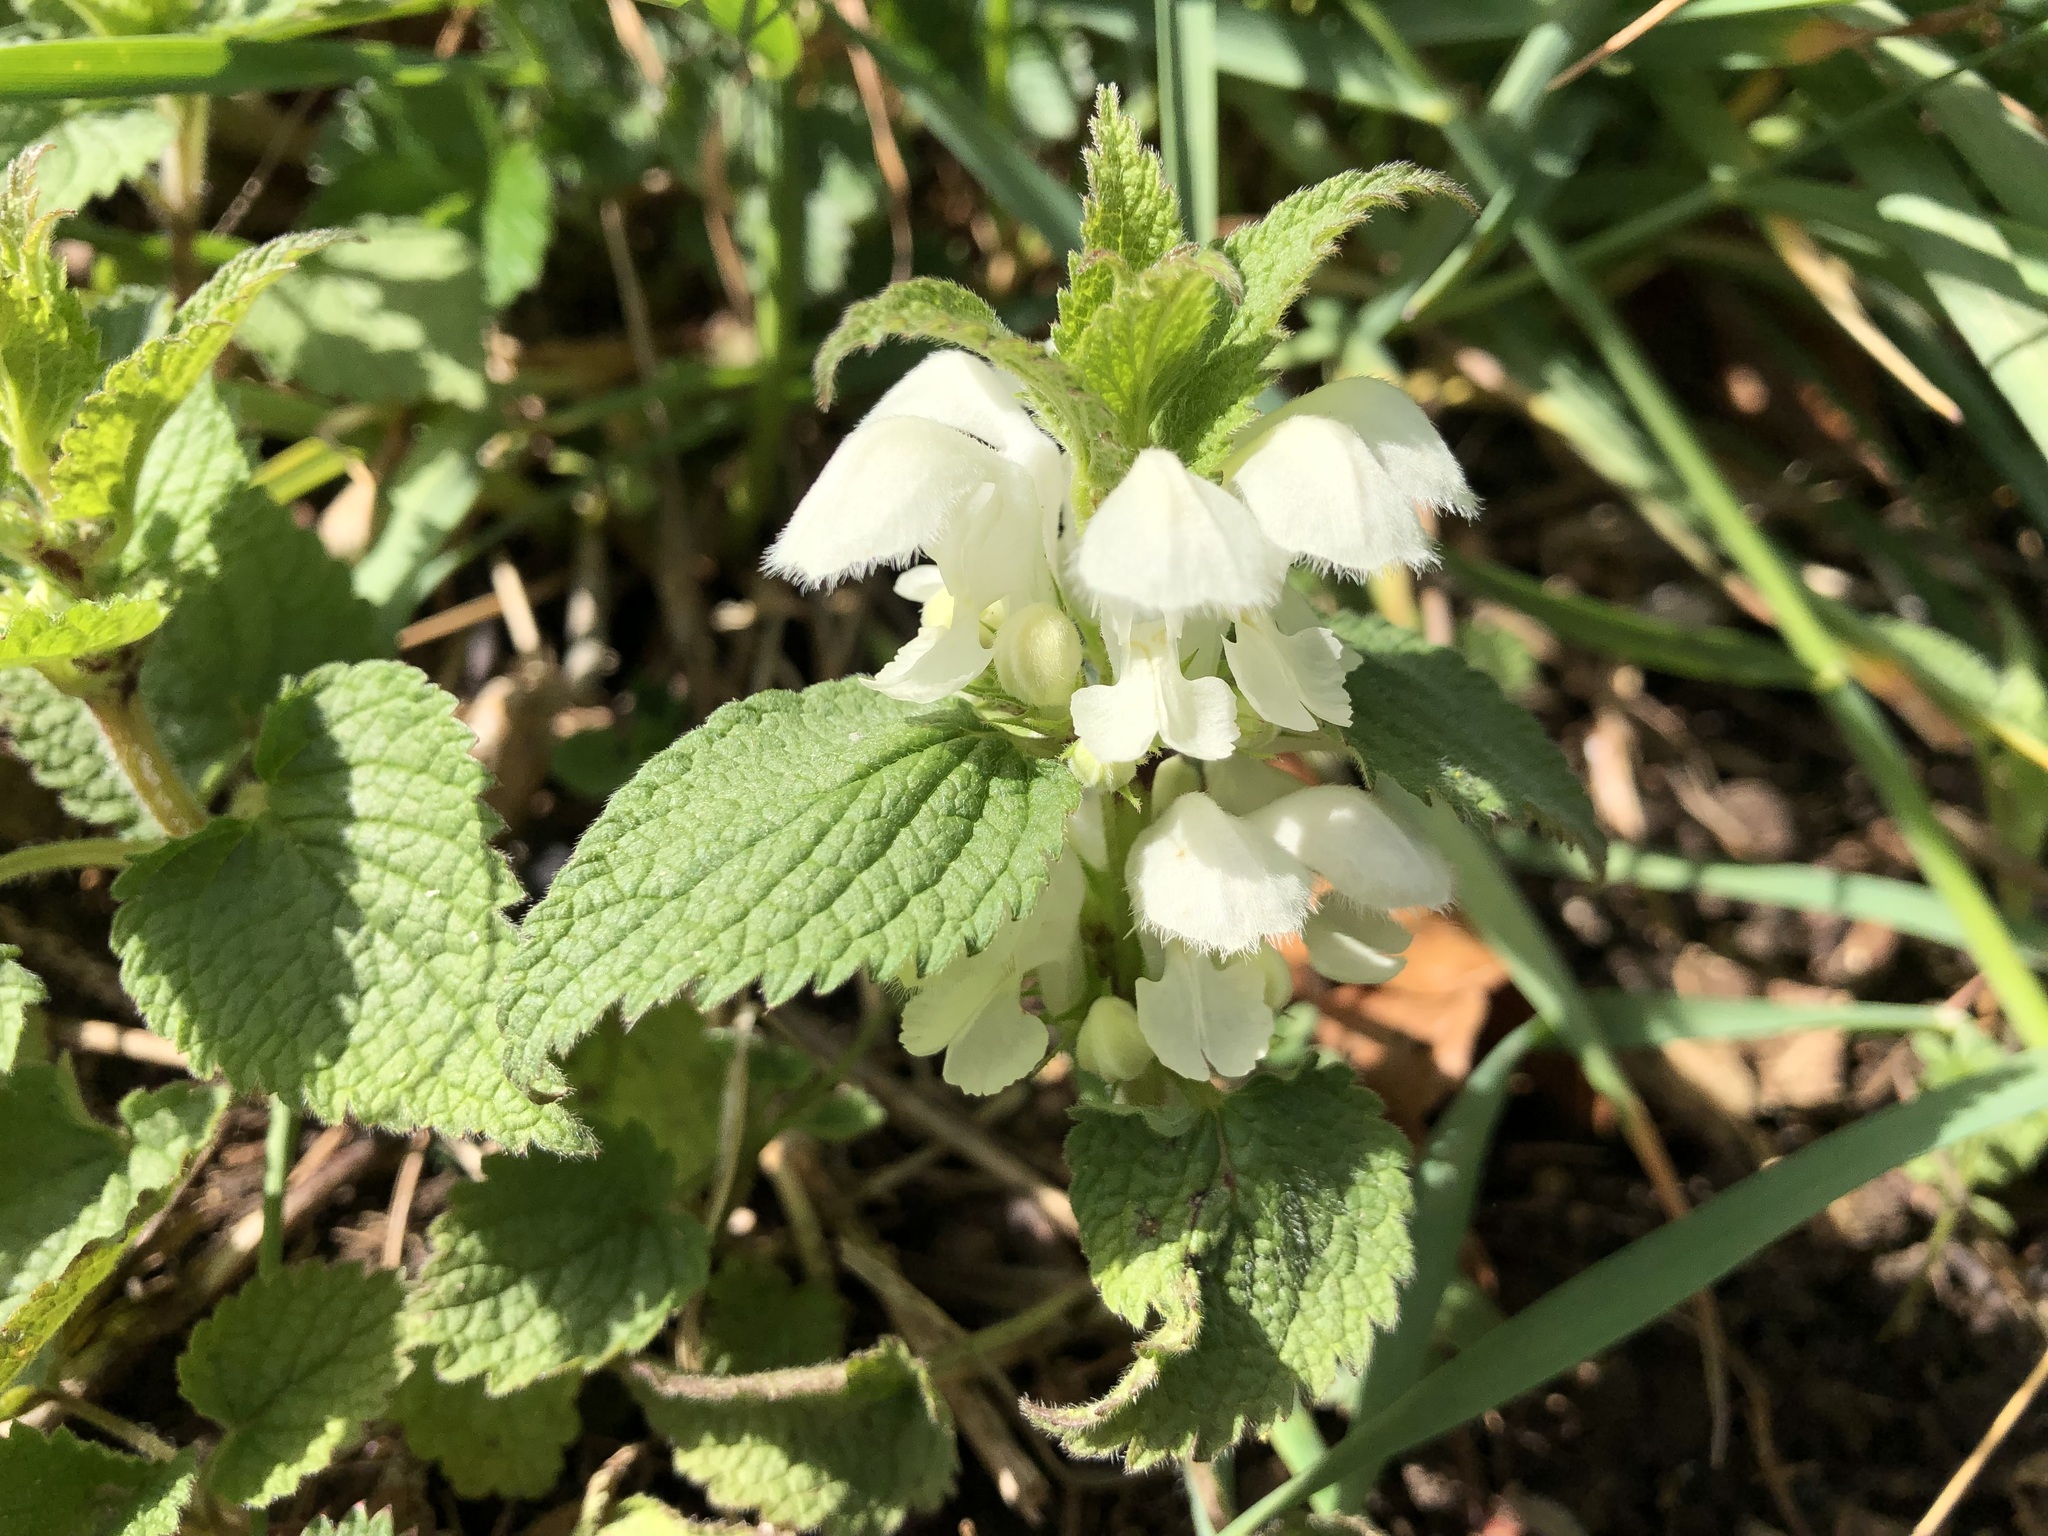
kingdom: Plantae
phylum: Tracheophyta
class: Magnoliopsida
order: Lamiales
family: Lamiaceae
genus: Lamium
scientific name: Lamium album
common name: White dead-nettle
